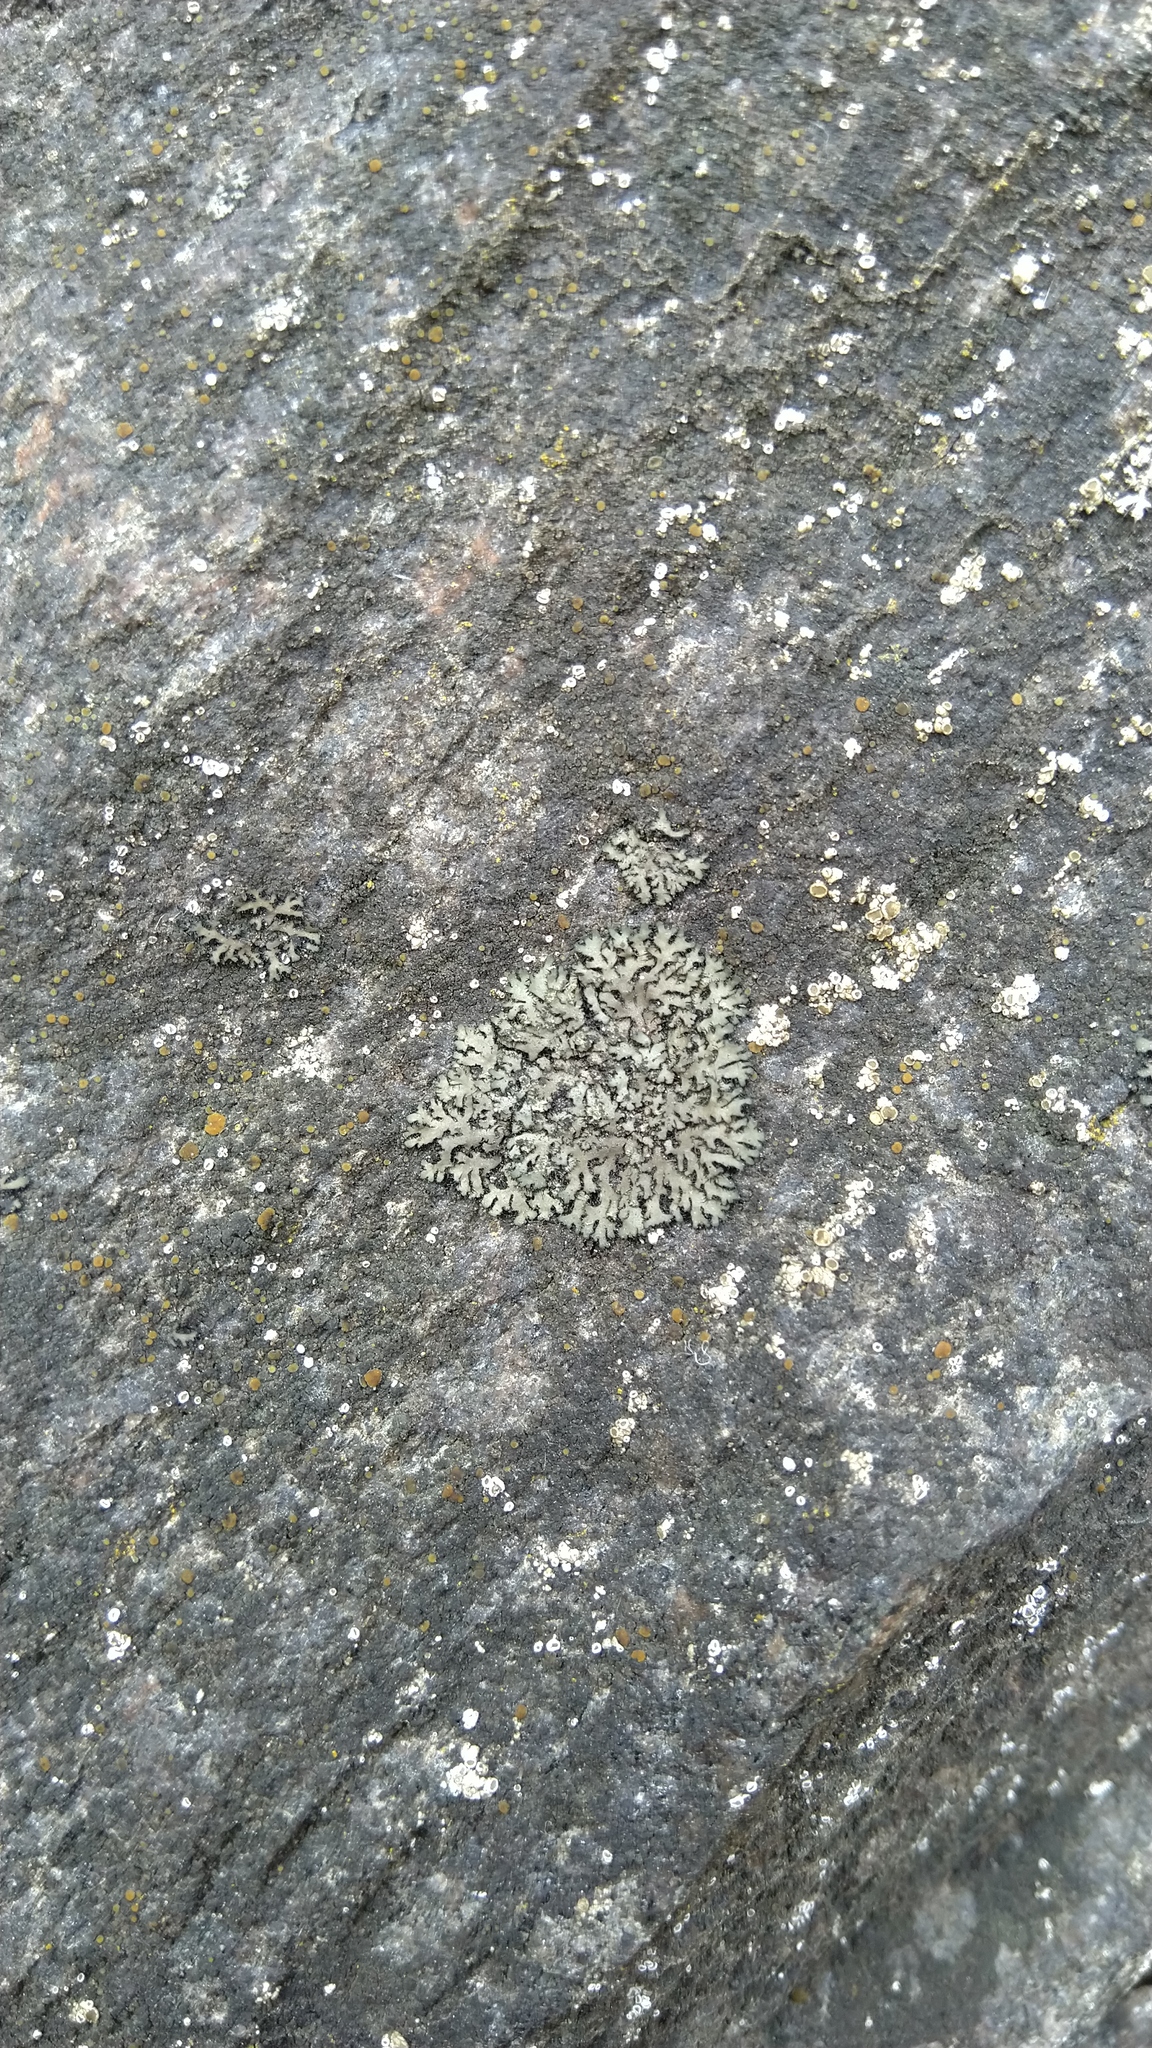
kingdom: Fungi
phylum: Ascomycota
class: Lecanoromycetes
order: Caliciales
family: Physciaceae
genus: Phaeophyscia
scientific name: Phaeophyscia orbicularis
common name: Mealy shadow lichen
